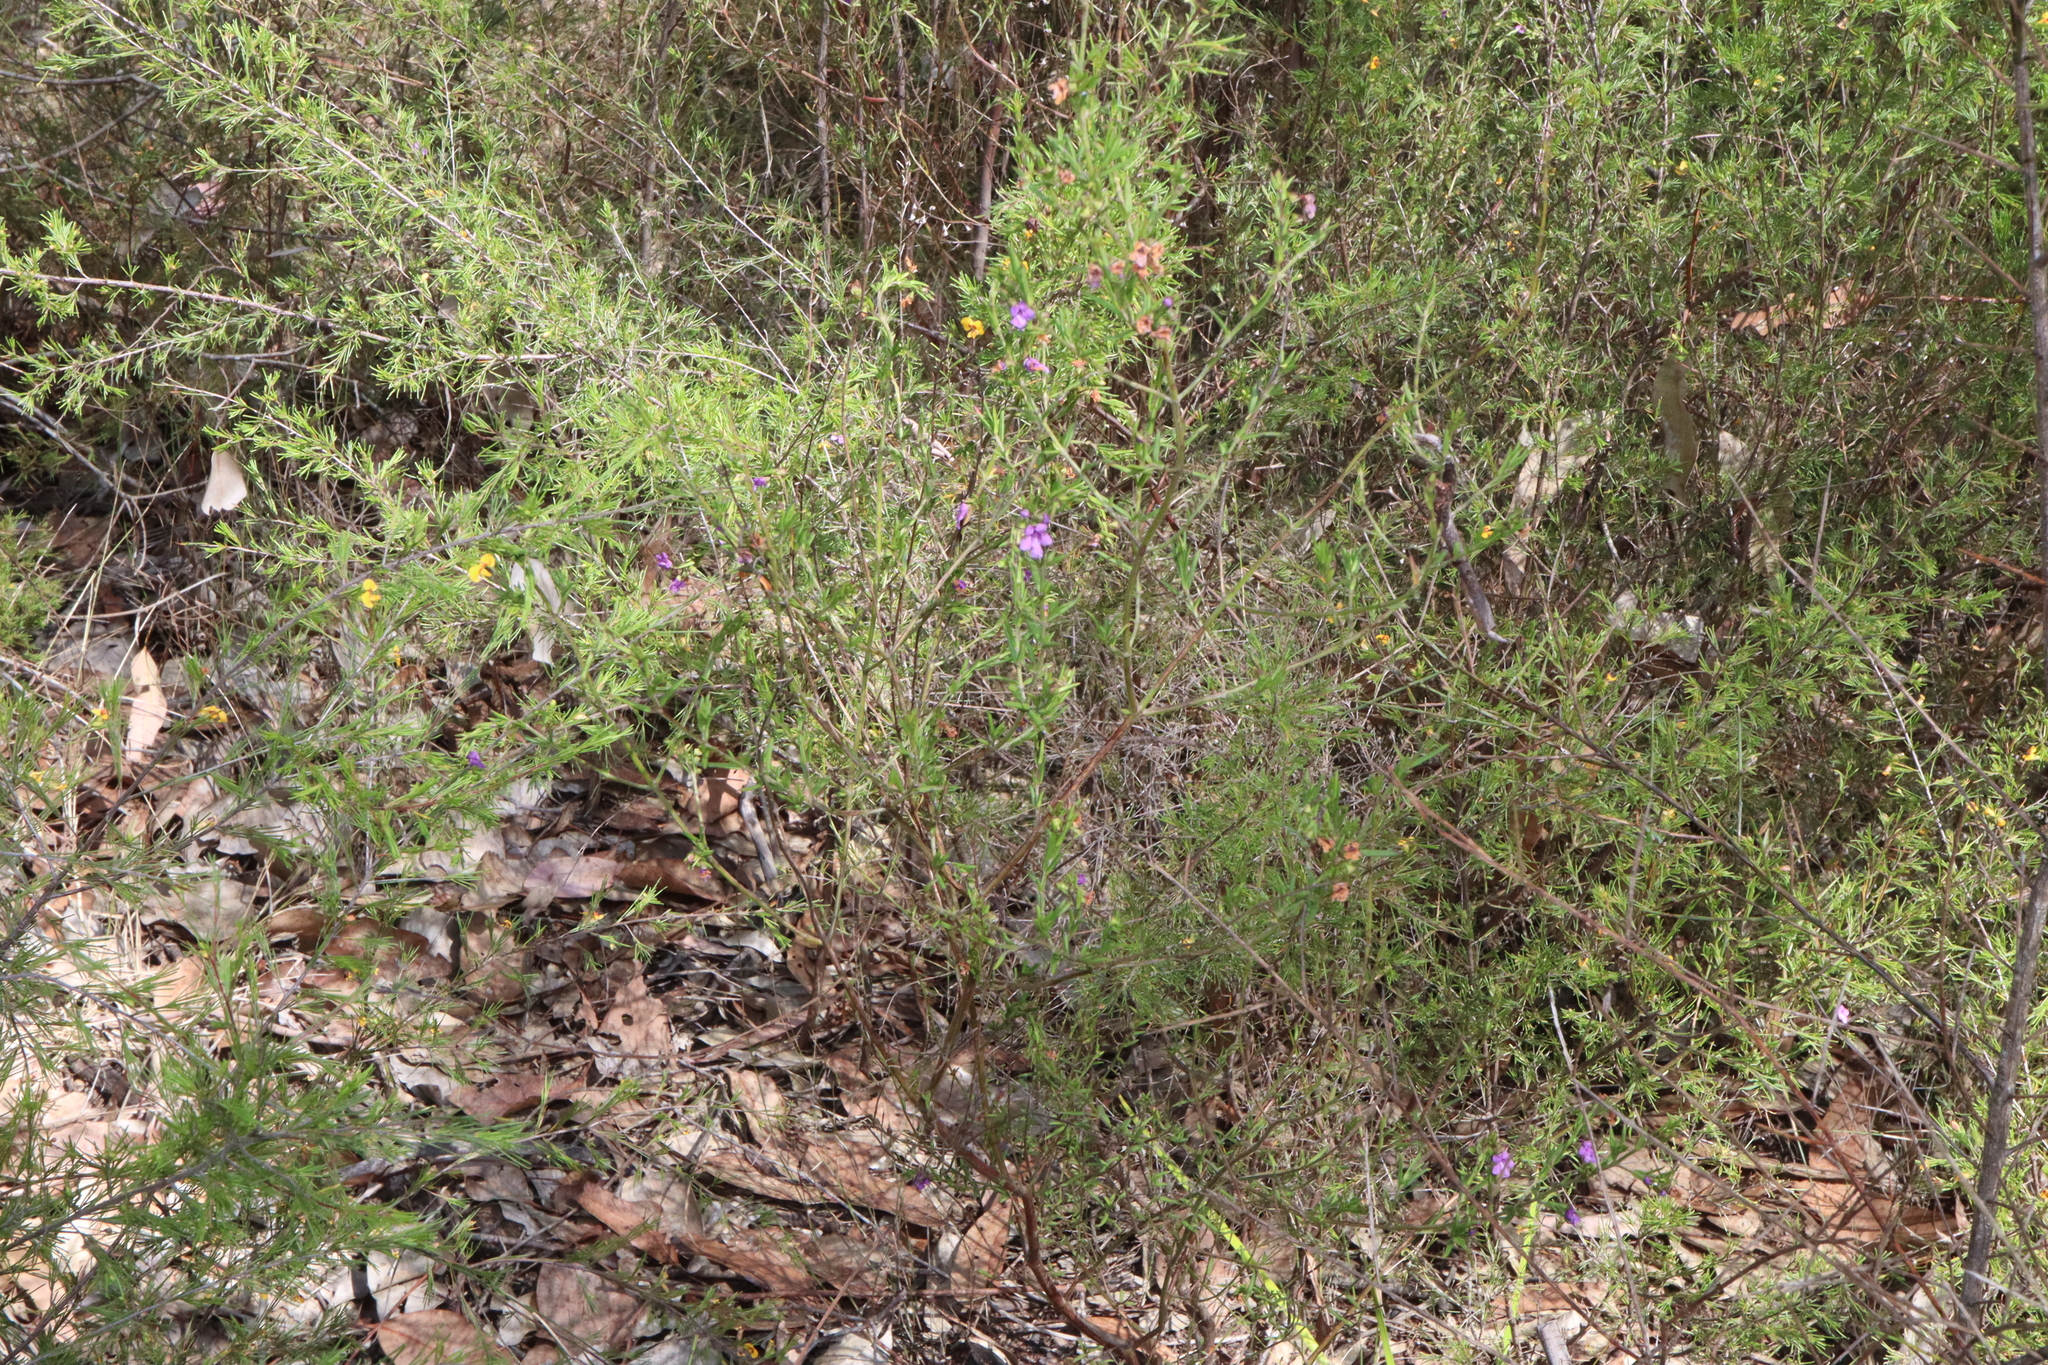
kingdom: Plantae
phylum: Tracheophyta
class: Magnoliopsida
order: Lamiales
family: Lamiaceae
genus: Prostanthera
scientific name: Prostanthera scutellarioides
